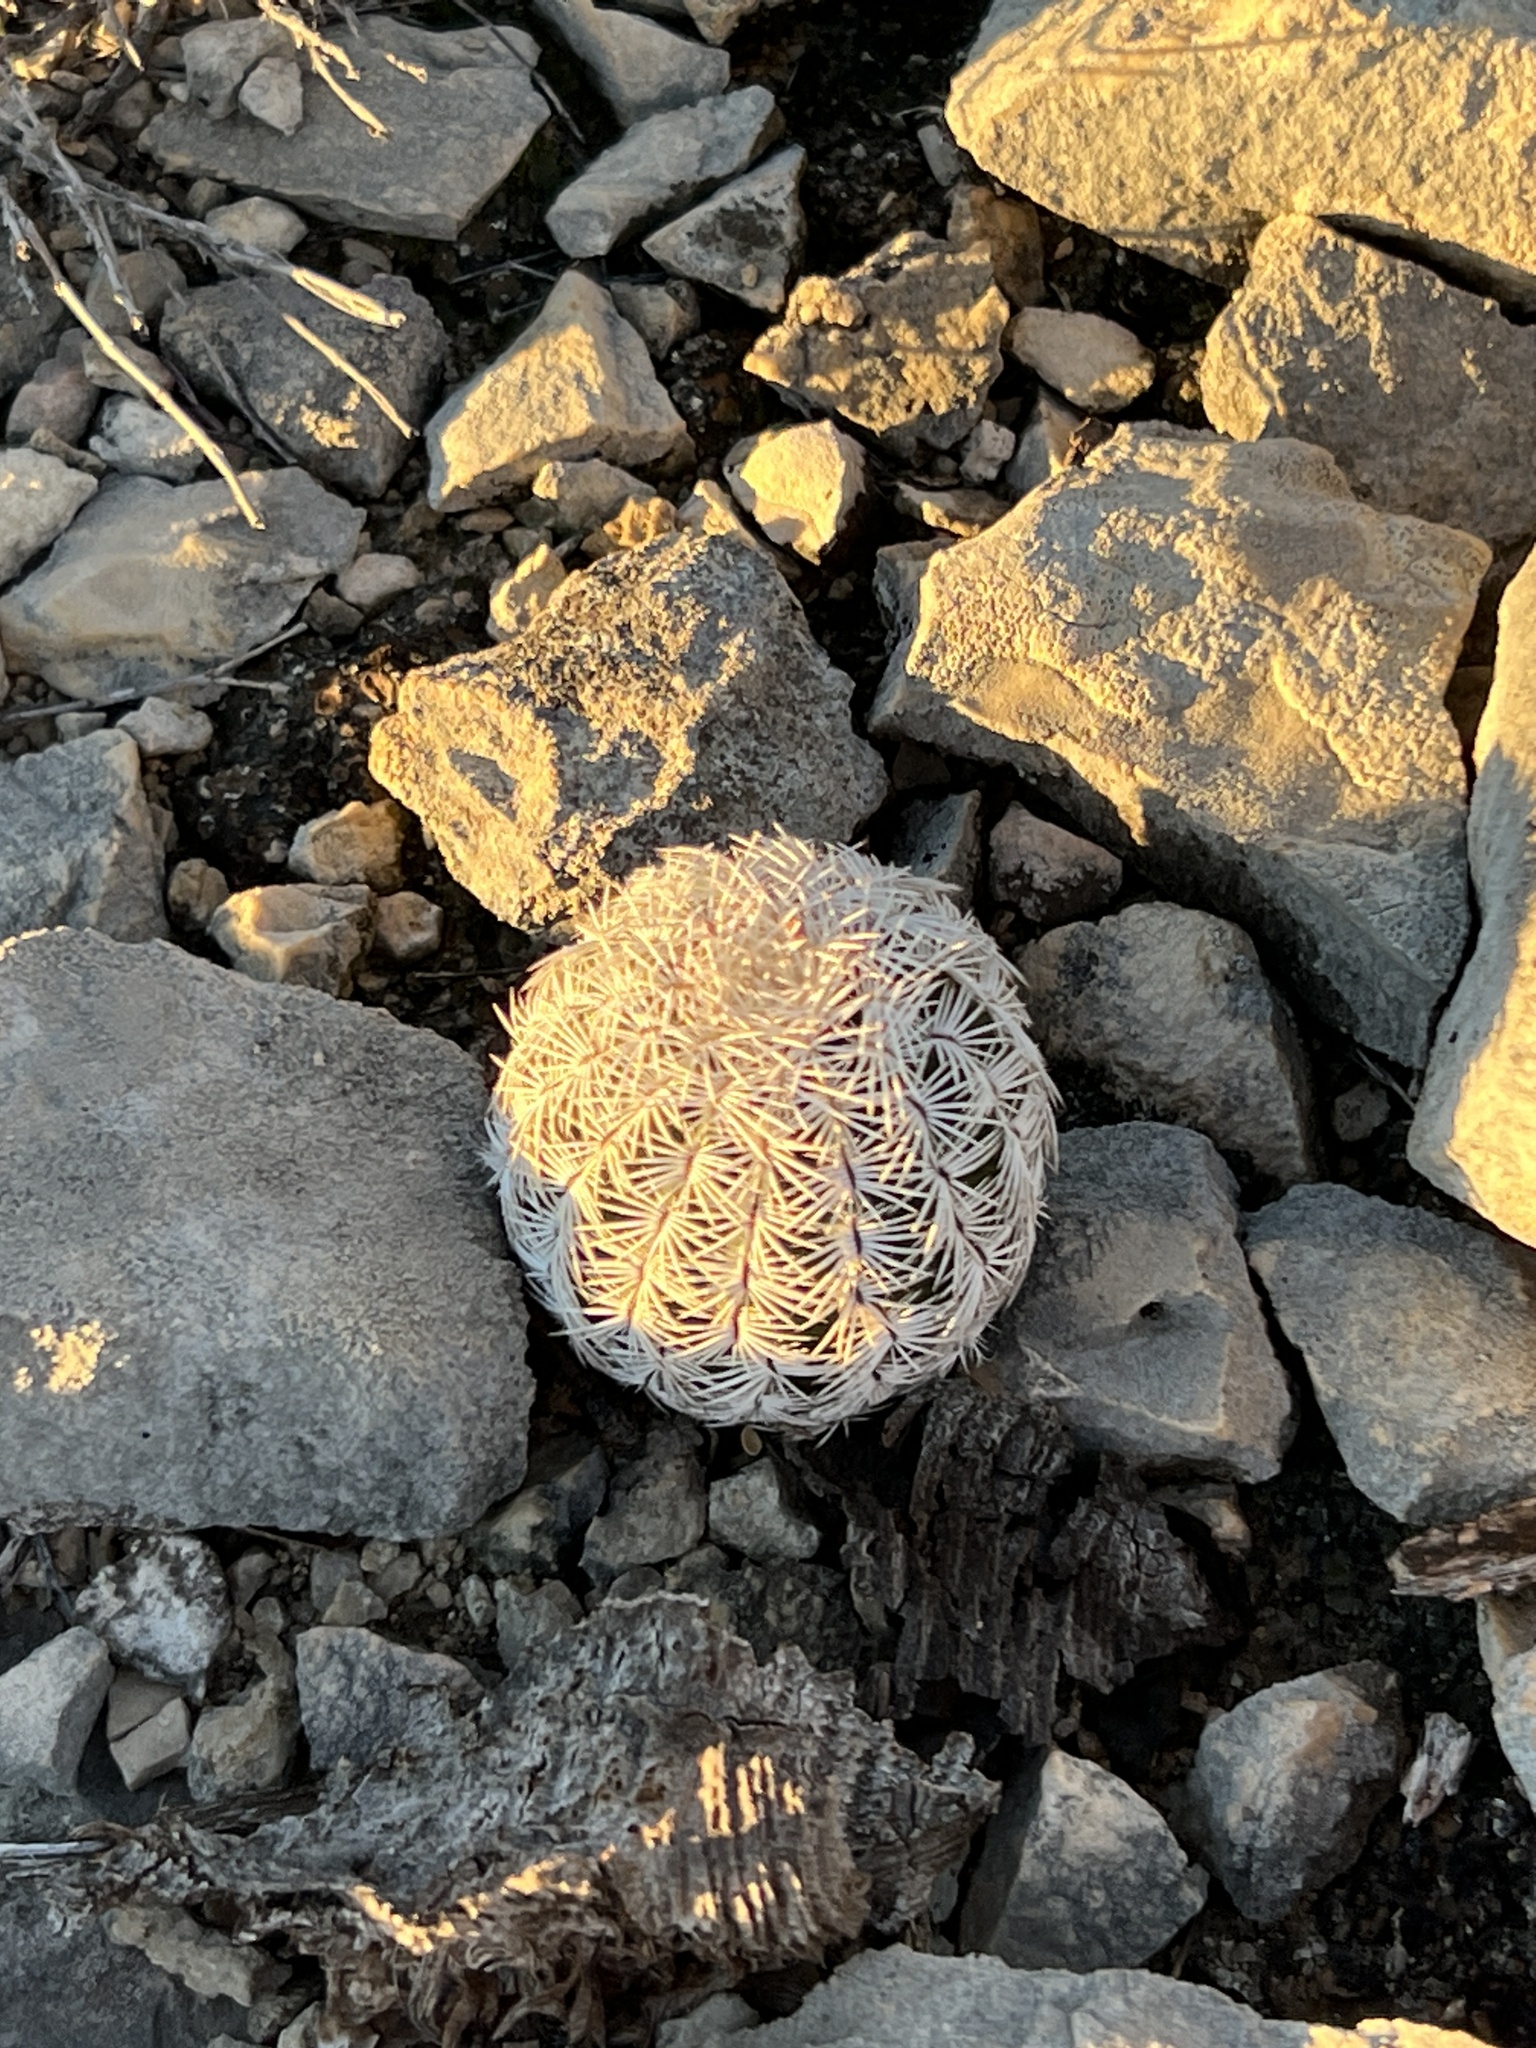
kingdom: Plantae
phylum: Tracheophyta
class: Magnoliopsida
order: Caryophyllales
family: Cactaceae
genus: Echinocereus
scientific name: Echinocereus reichenbachii
